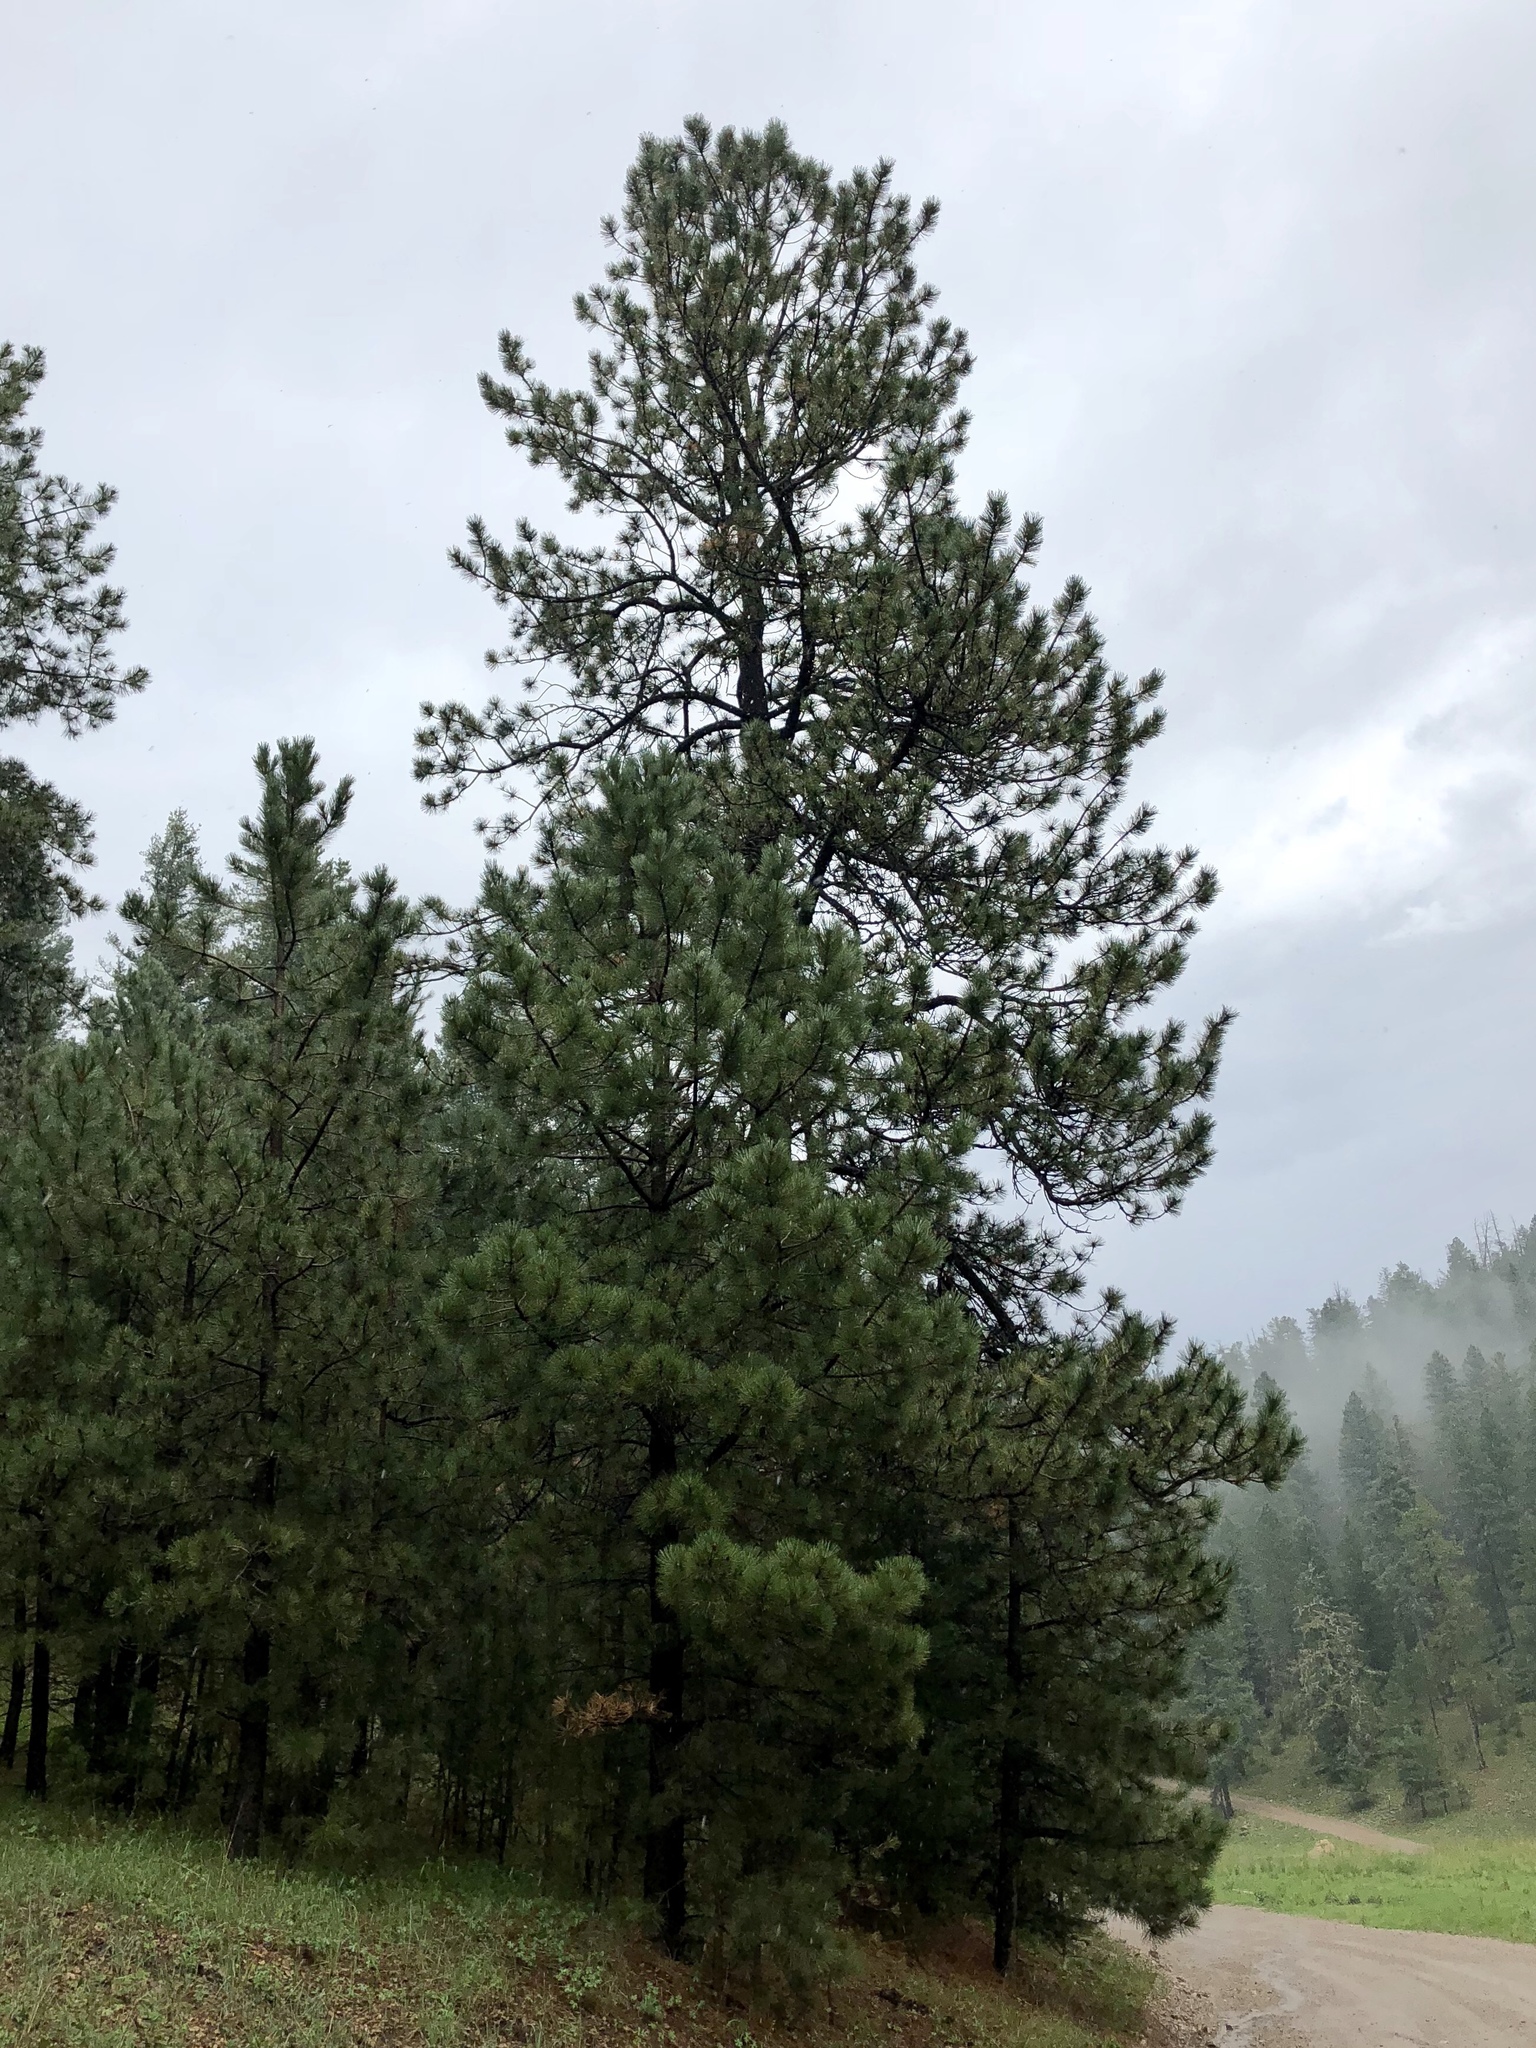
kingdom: Plantae
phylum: Tracheophyta
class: Pinopsida
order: Pinales
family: Pinaceae
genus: Pinus
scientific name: Pinus ponderosa
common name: Western yellow-pine
